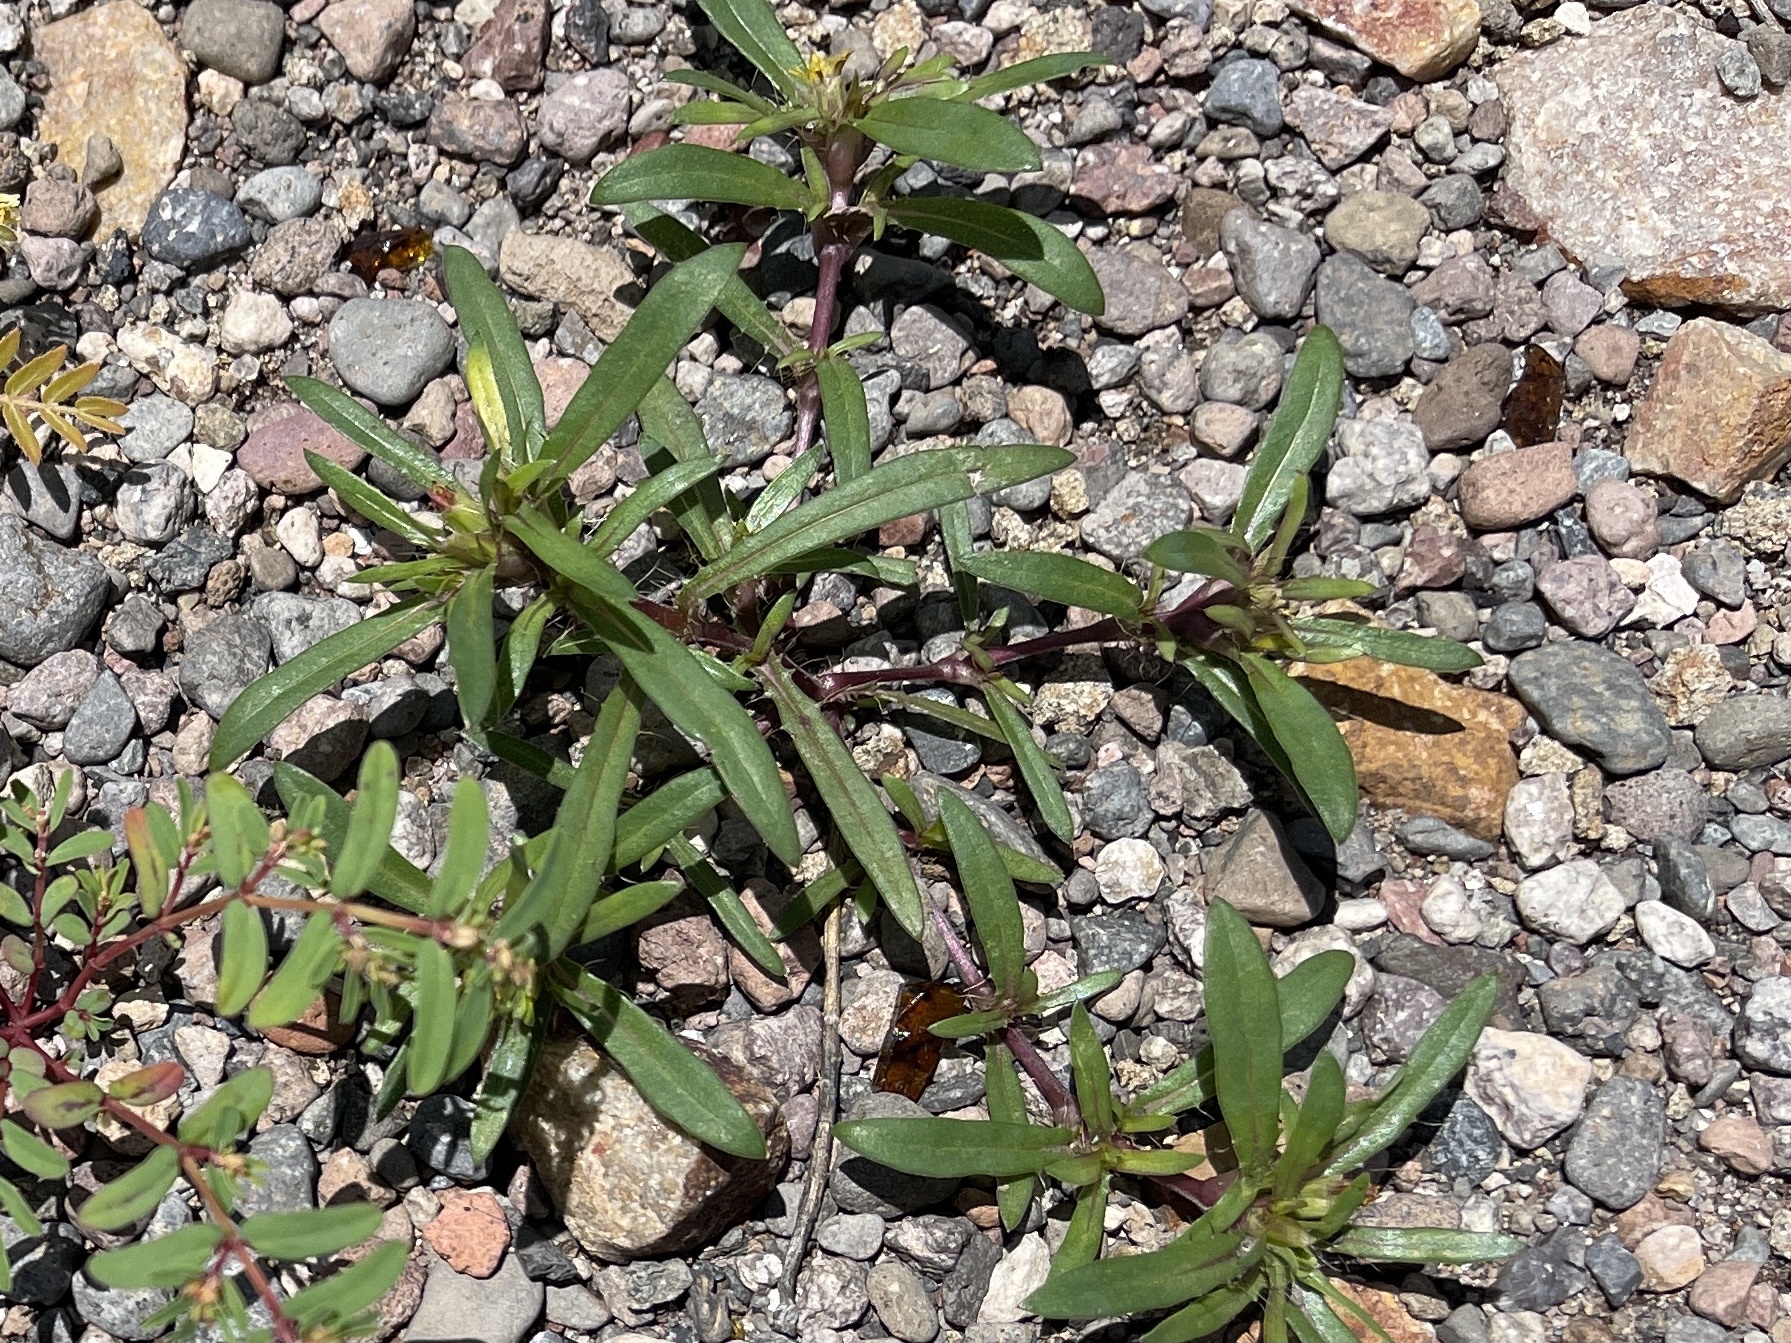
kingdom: Plantae
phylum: Tracheophyta
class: Magnoliopsida
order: Asterales
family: Asteraceae
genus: Pectis
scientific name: Pectis prostrata
